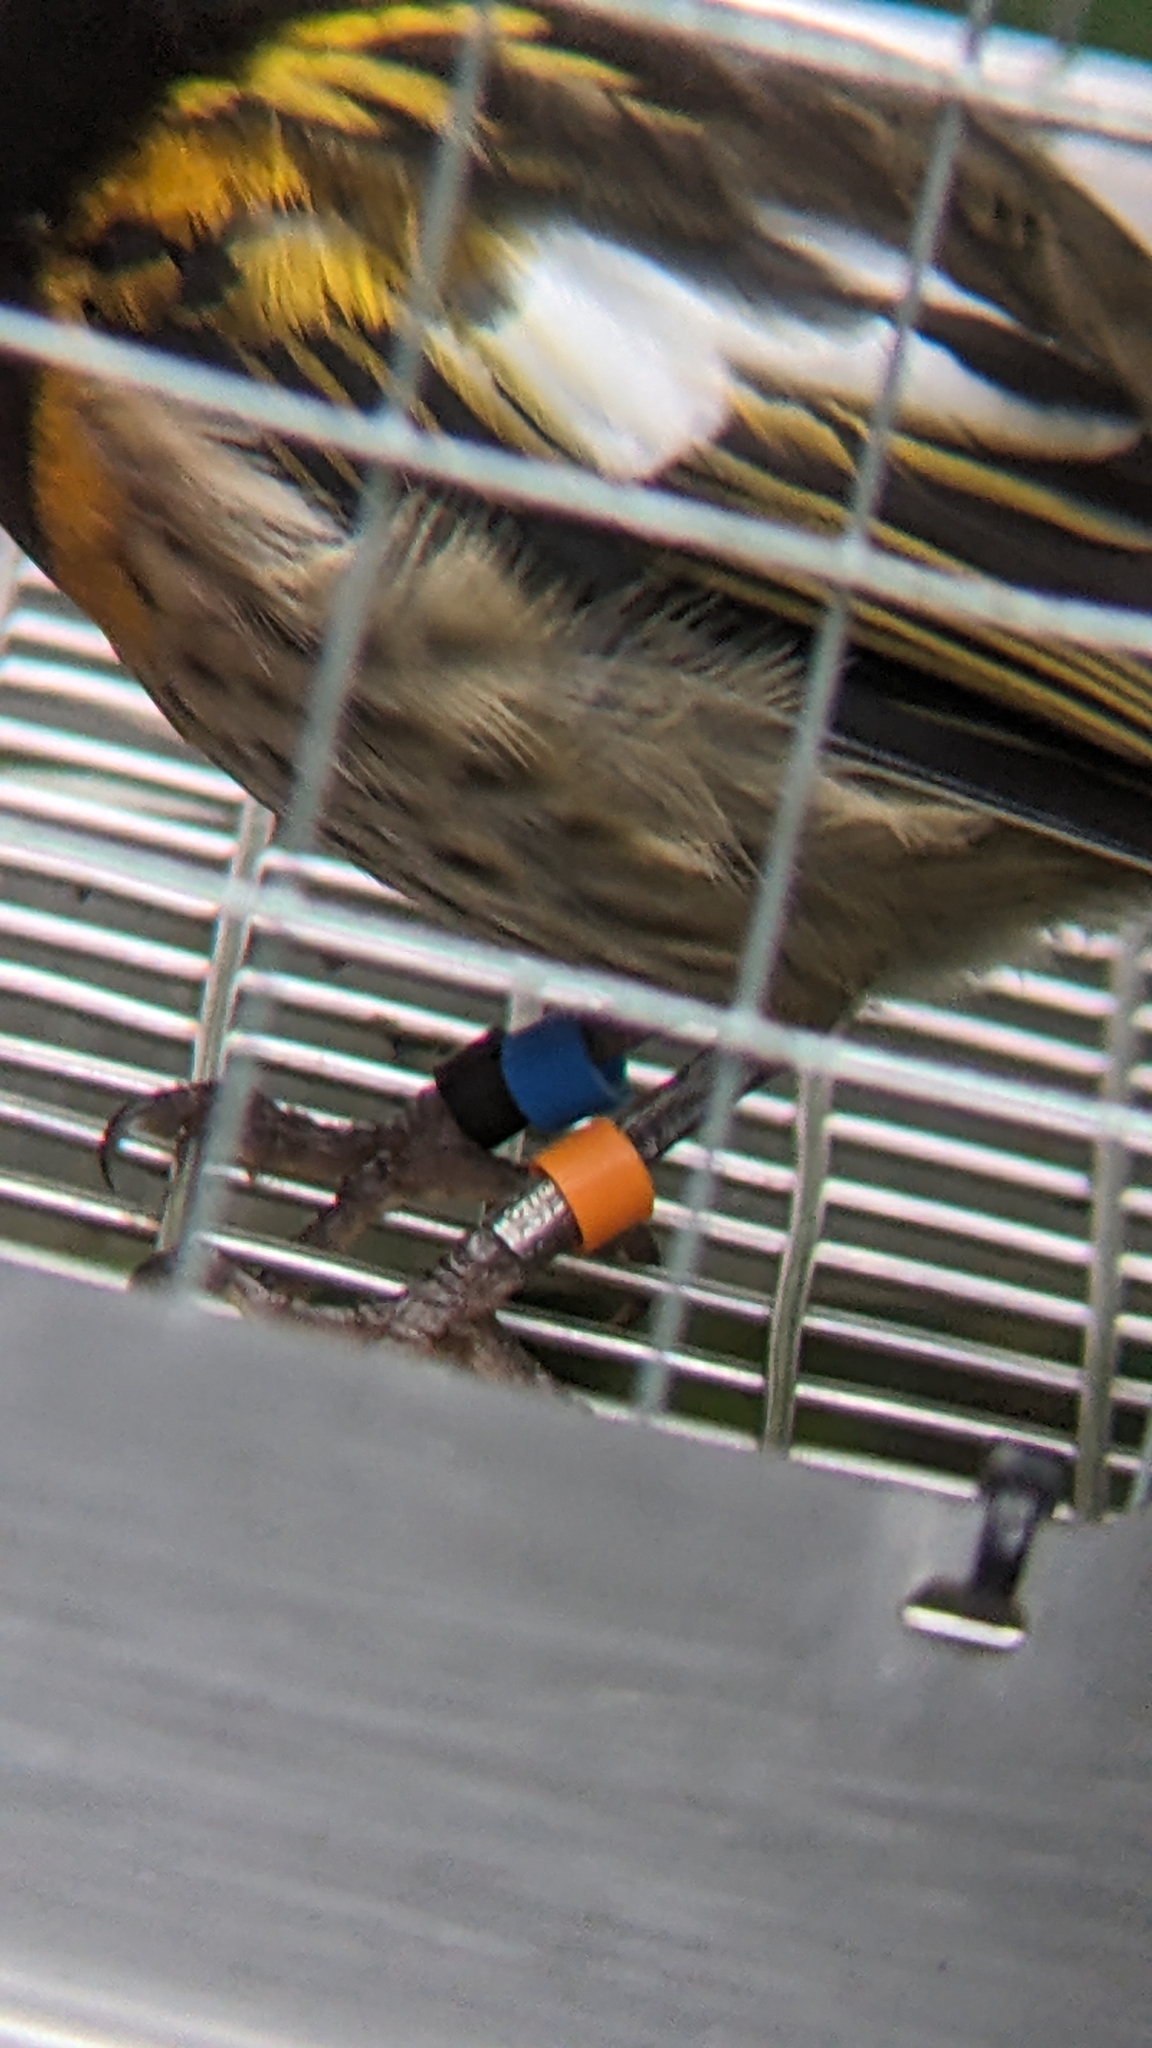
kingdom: Animalia
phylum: Chordata
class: Aves
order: Passeriformes
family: Notiomystidae
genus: Notiomystis
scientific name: Notiomystis cincta
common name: Stitchbird
